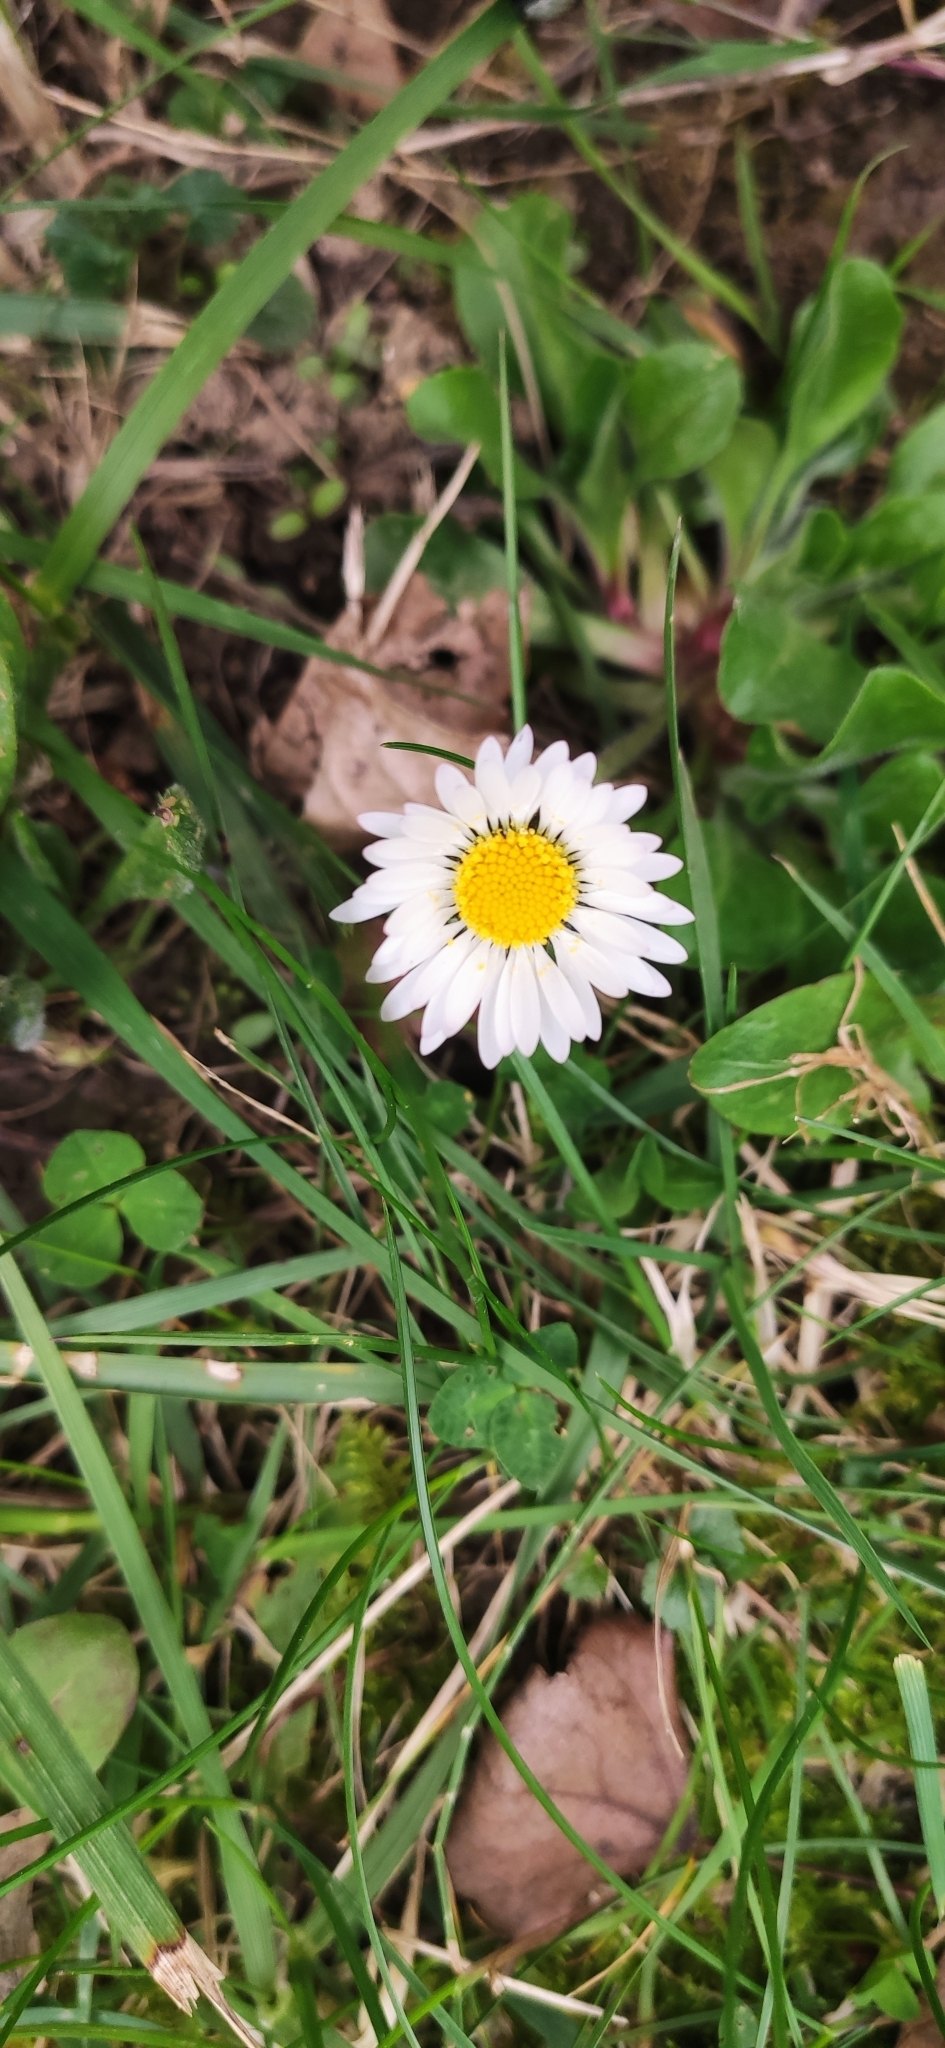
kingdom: Plantae
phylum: Tracheophyta
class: Magnoliopsida
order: Asterales
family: Asteraceae
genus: Bellis
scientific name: Bellis perennis
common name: Lawndaisy
